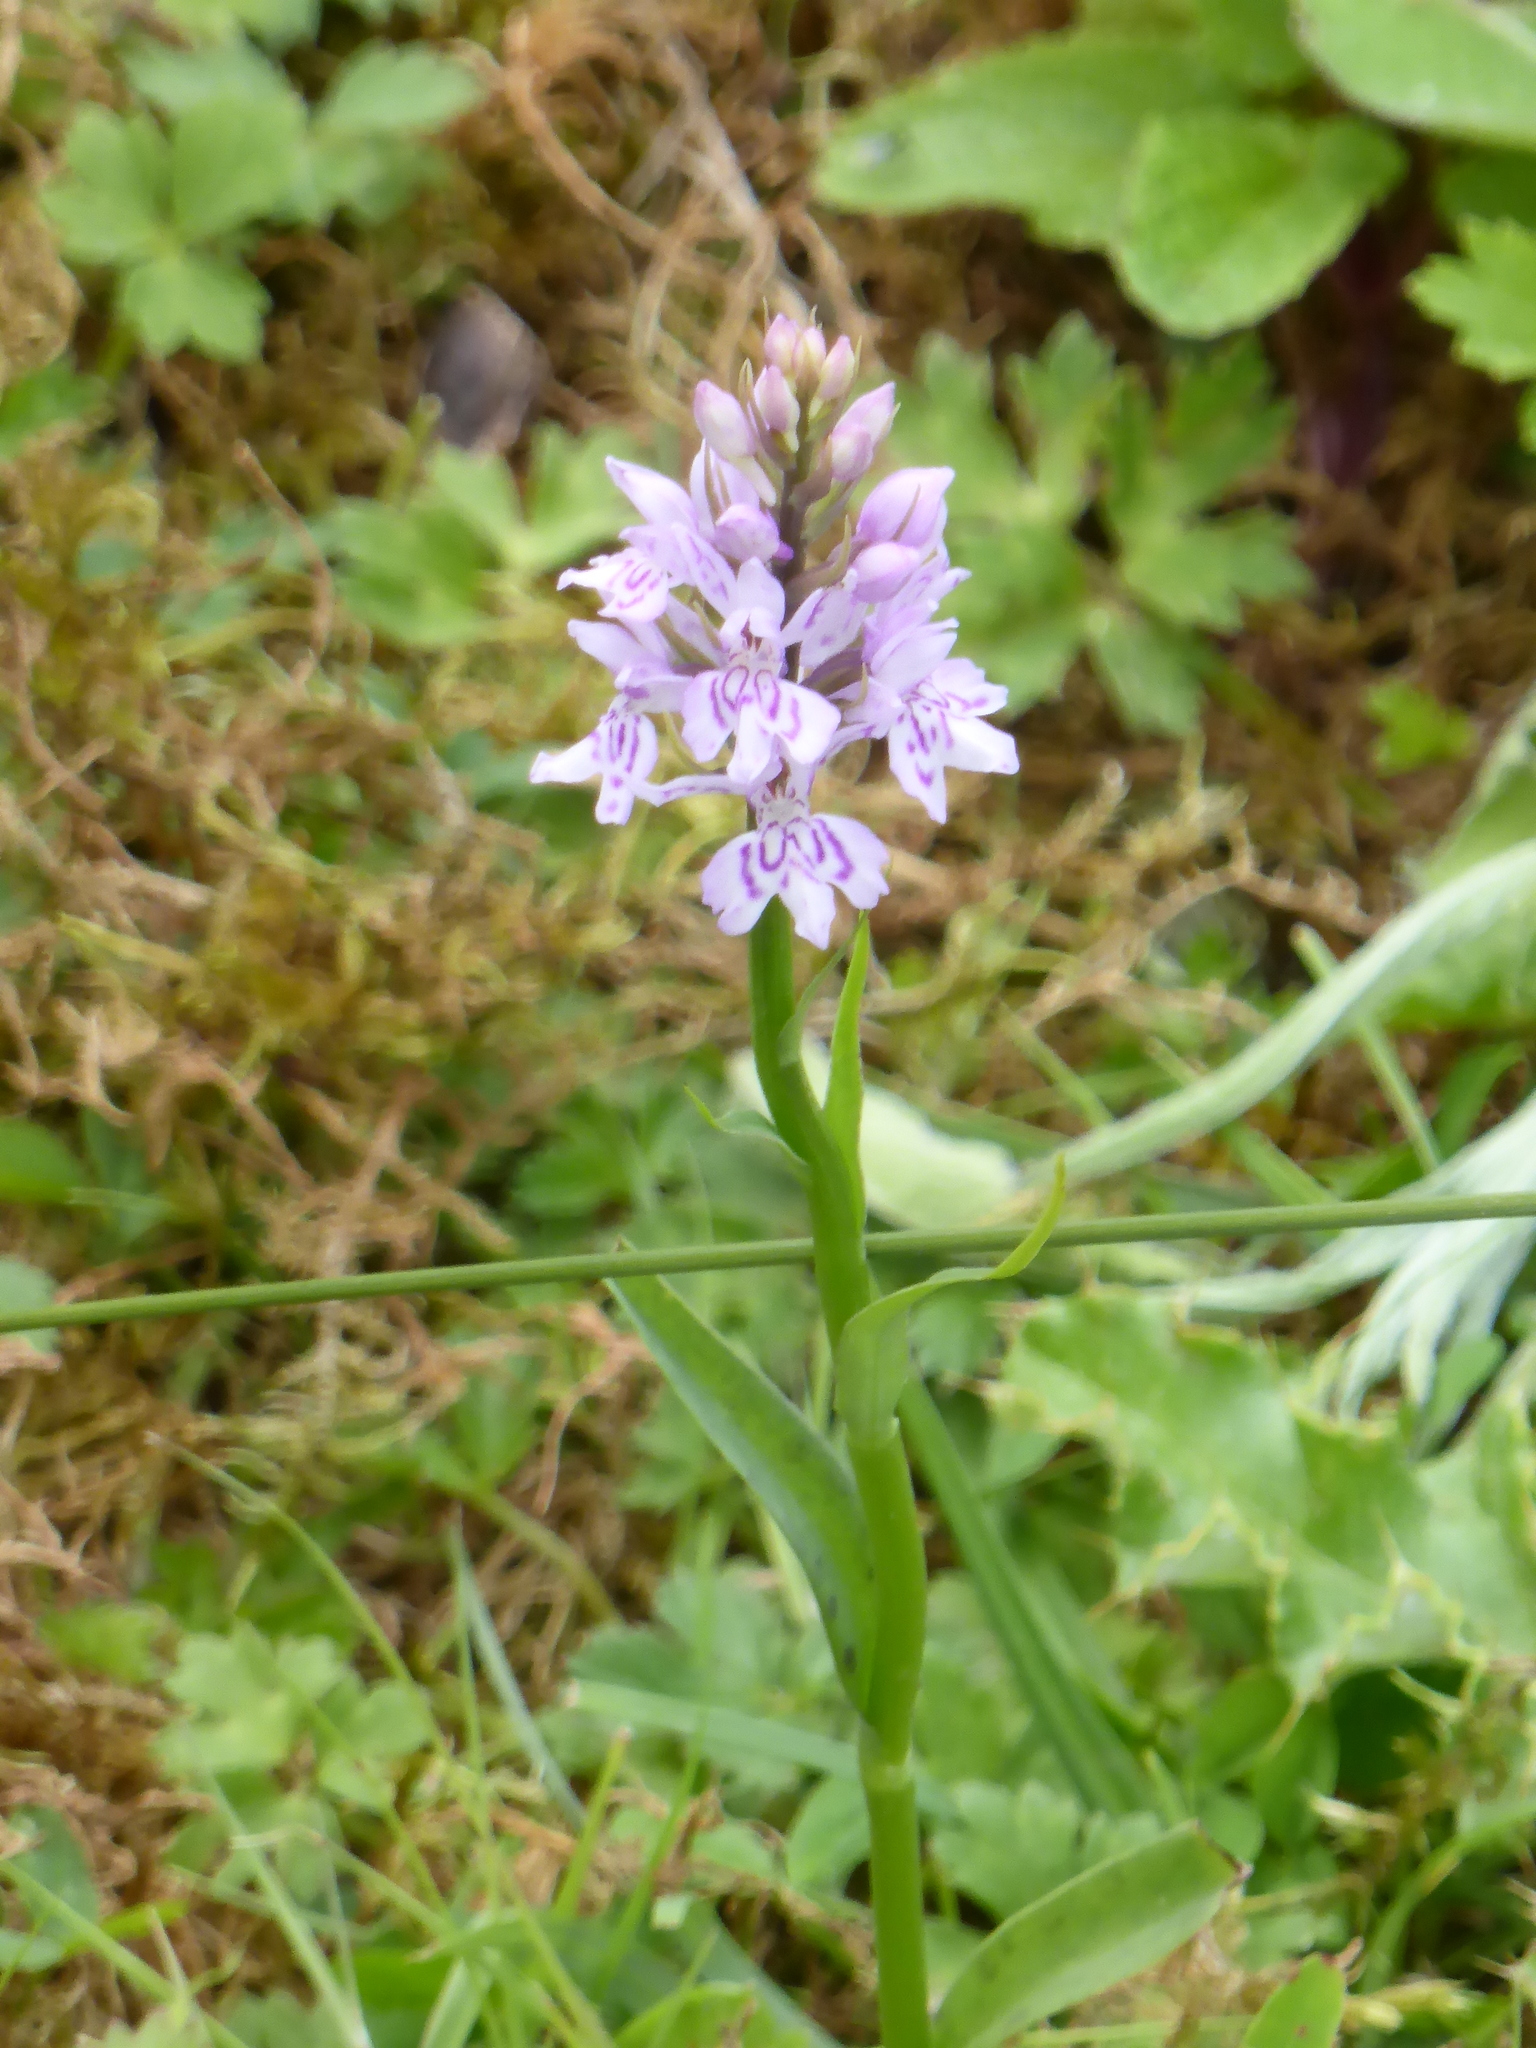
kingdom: Plantae
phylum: Tracheophyta
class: Liliopsida
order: Asparagales
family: Orchidaceae
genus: Dactylorhiza
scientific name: Dactylorhiza maculata
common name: Heath spotted-orchid
